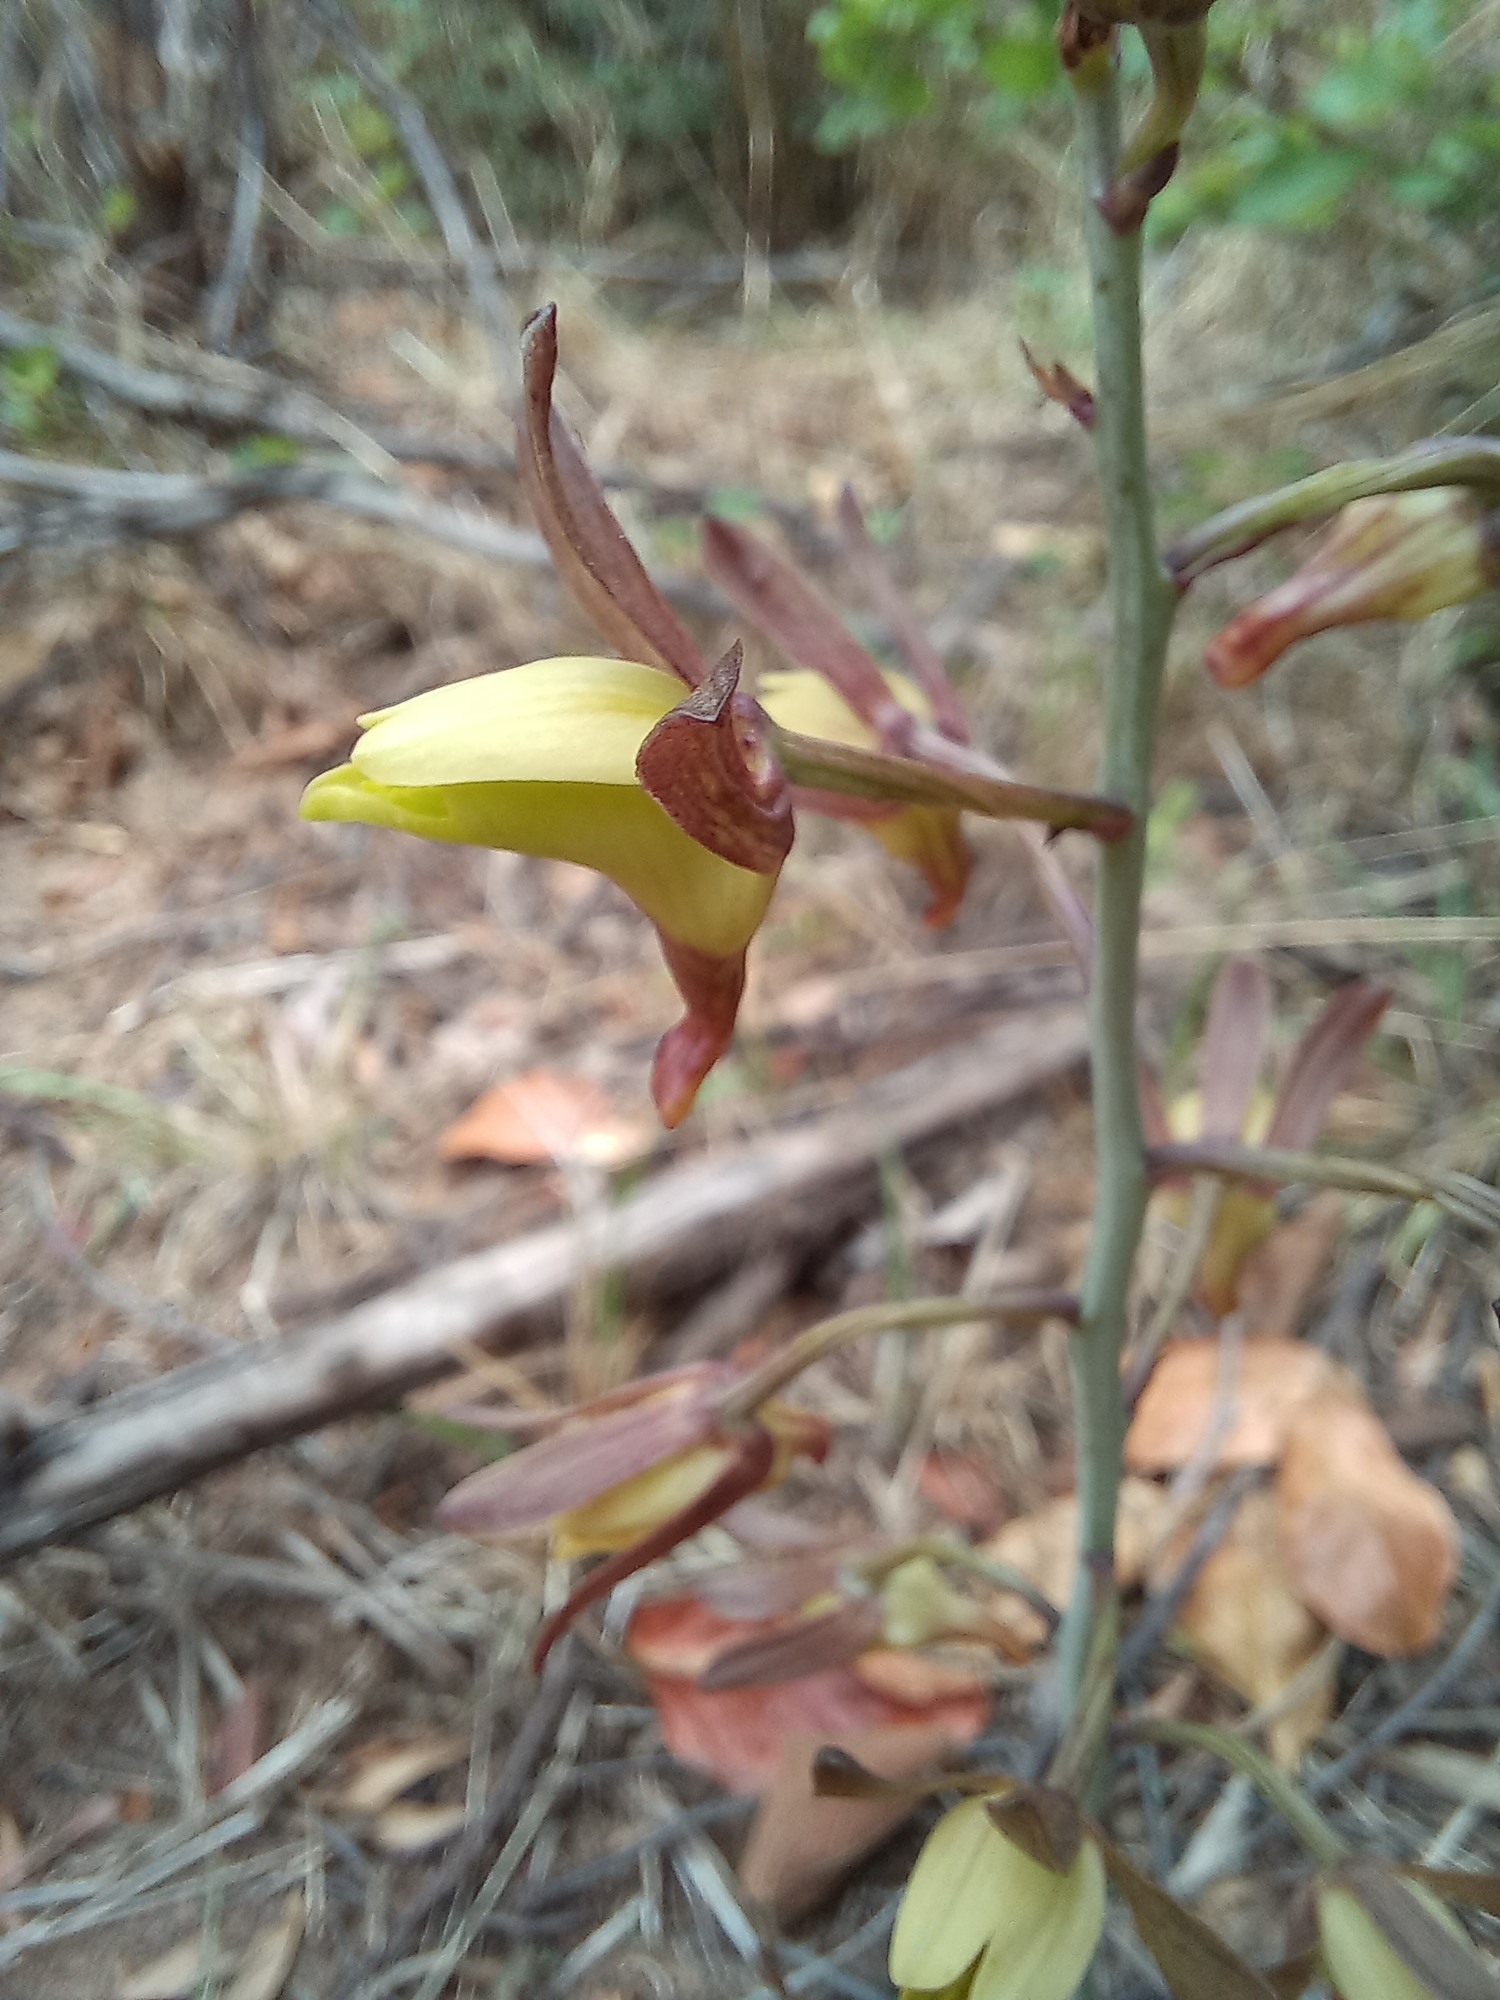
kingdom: Plantae
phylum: Tracheophyta
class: Liliopsida
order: Asparagales
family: Orchidaceae
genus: Eulophia
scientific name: Eulophia hereroensis
